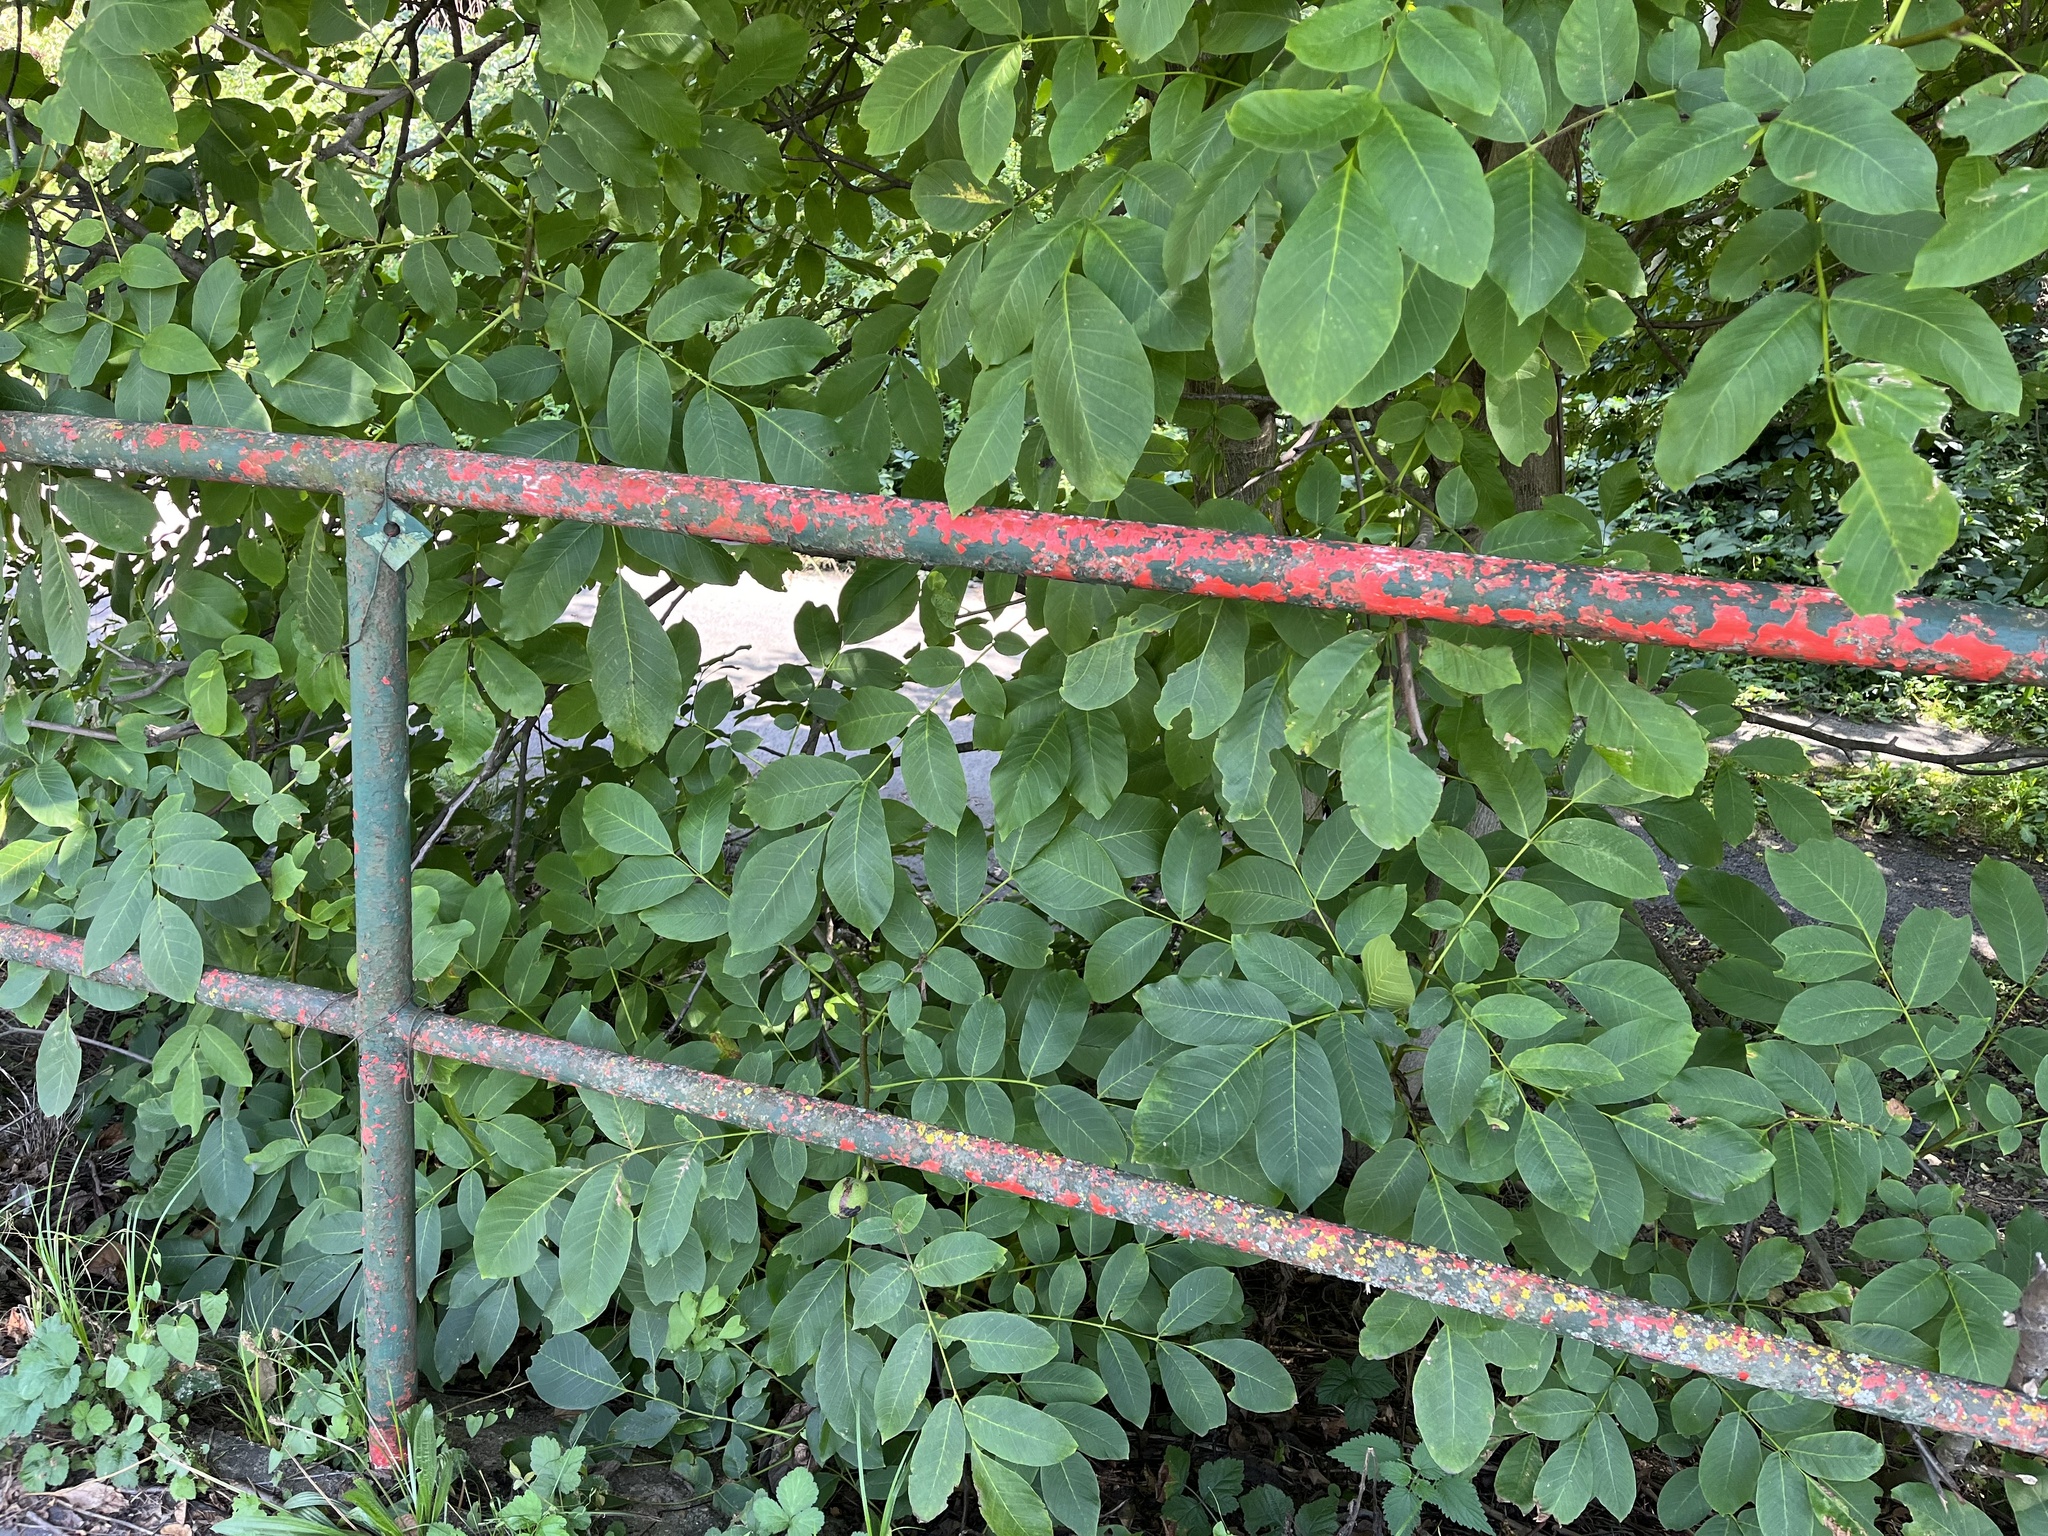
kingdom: Plantae
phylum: Tracheophyta
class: Magnoliopsida
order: Fagales
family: Juglandaceae
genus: Juglans
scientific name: Juglans regia
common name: Walnut
